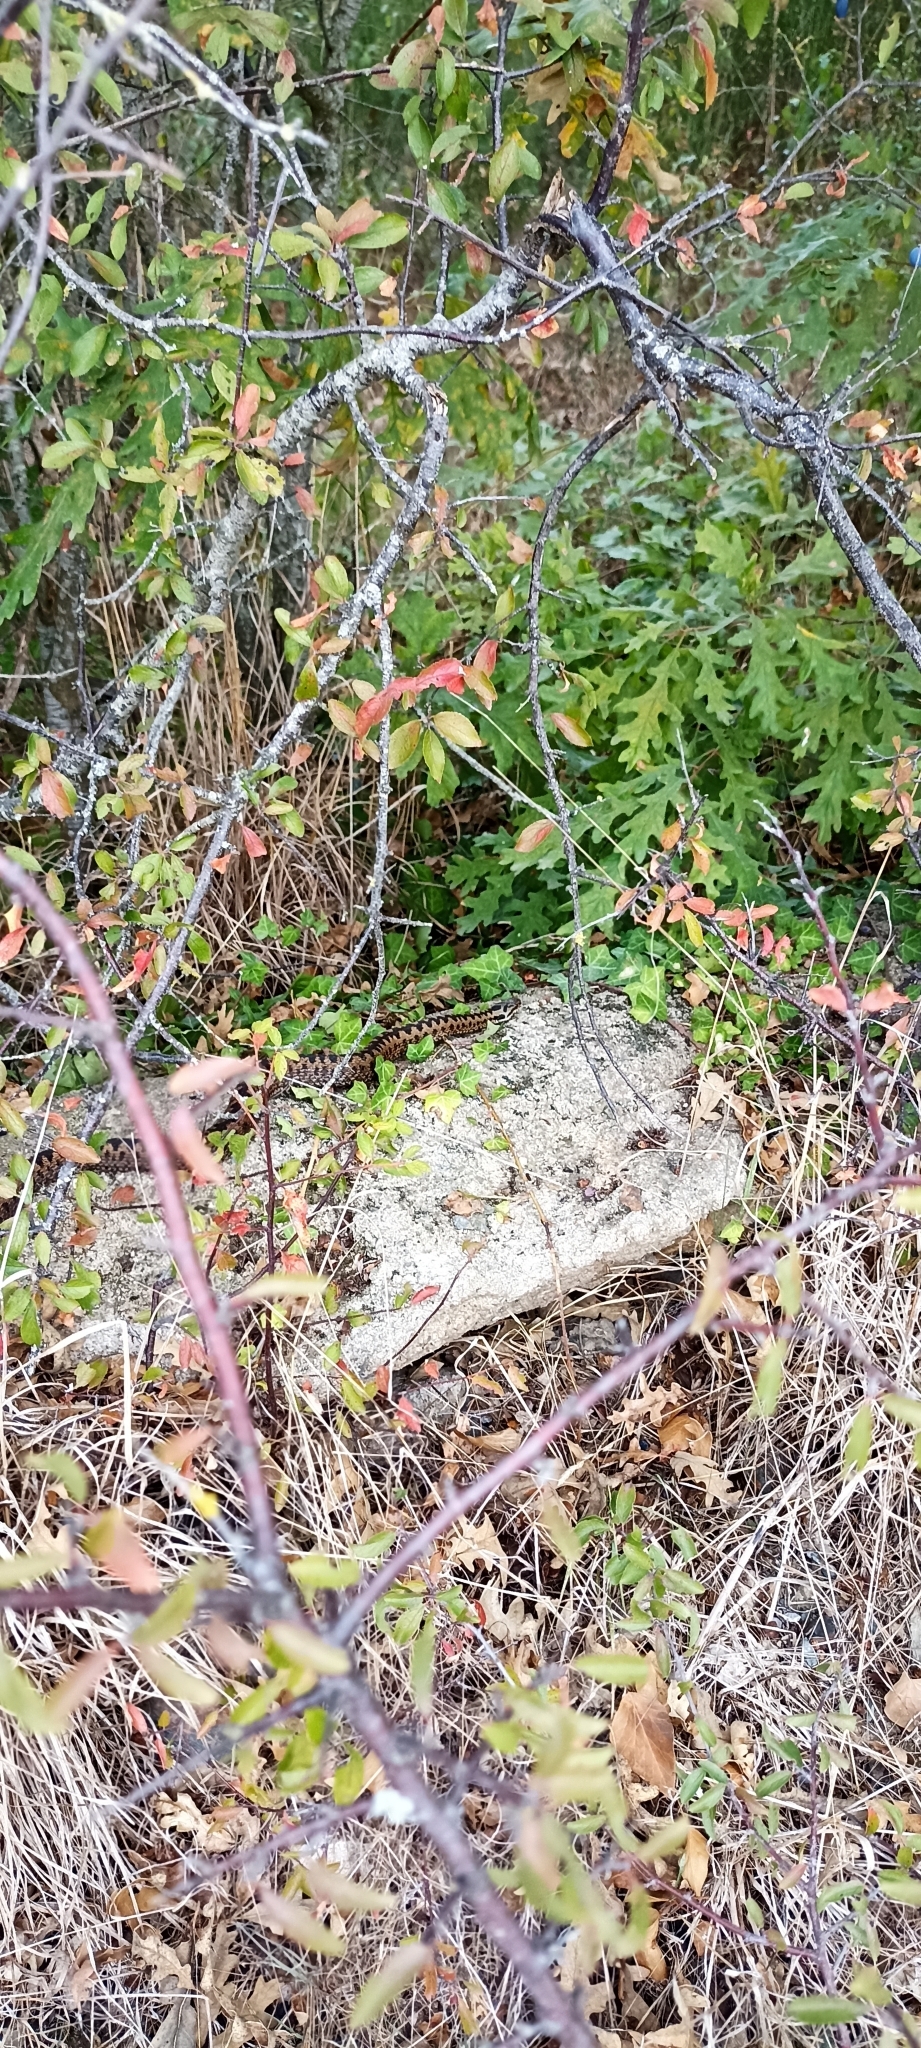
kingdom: Animalia
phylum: Chordata
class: Squamata
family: Viperidae
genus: Vipera
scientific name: Vipera berus
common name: Adder
